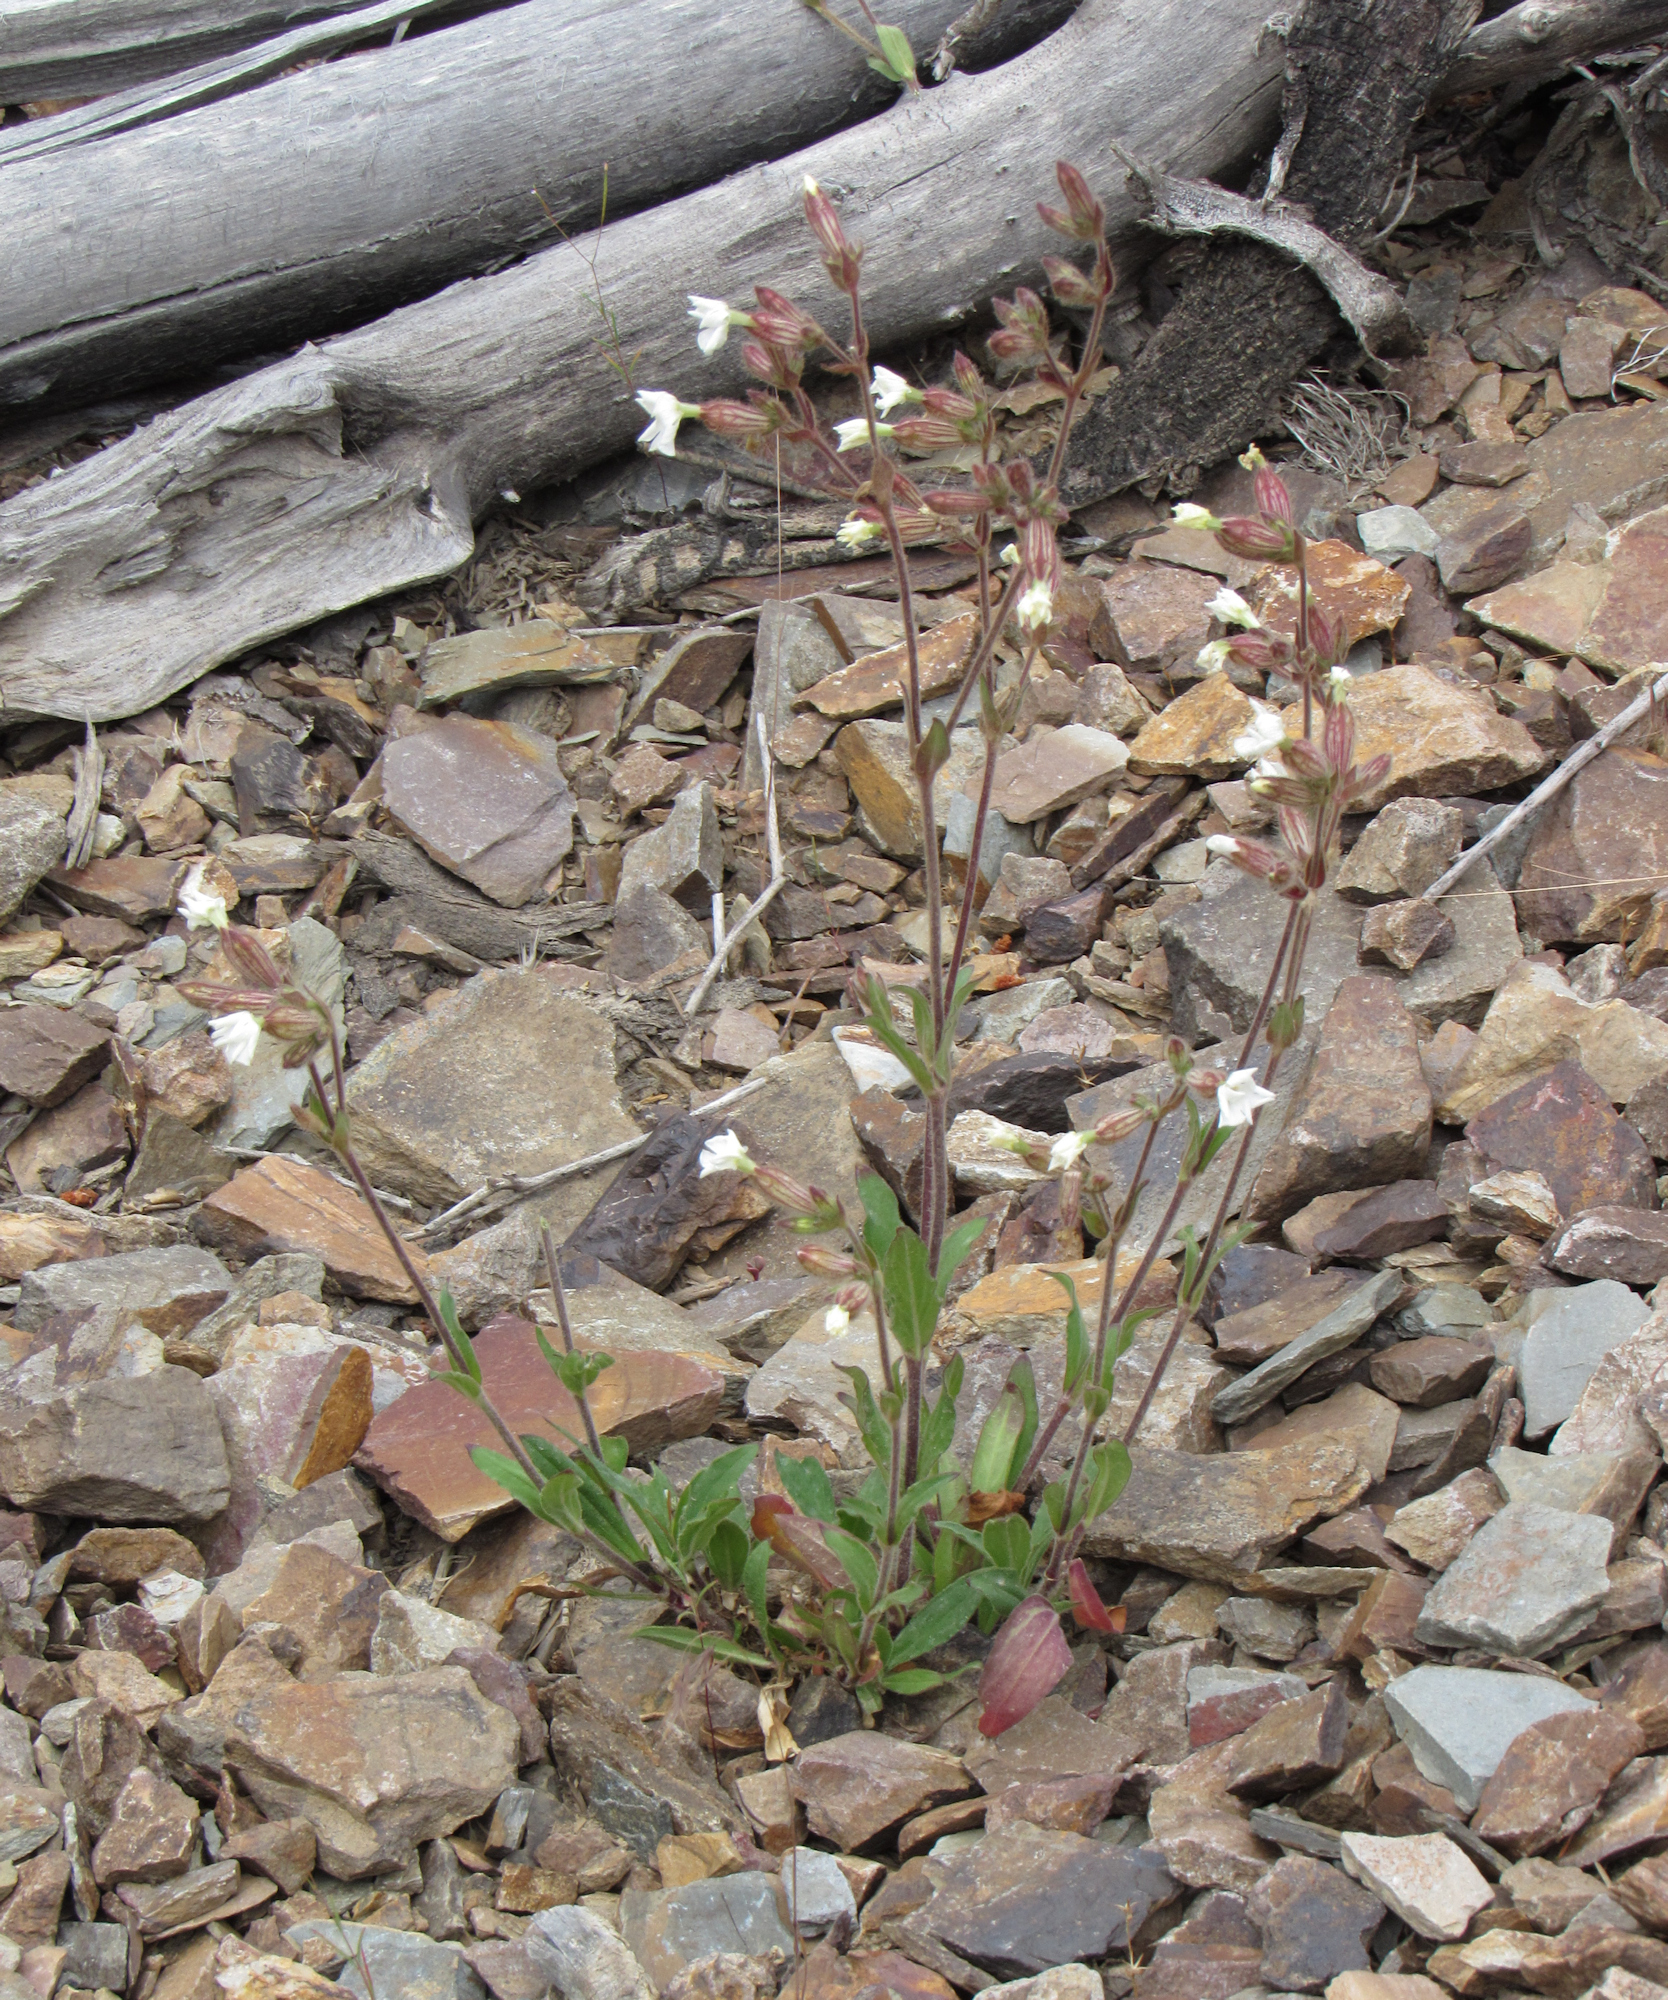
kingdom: Plantae
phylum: Tracheophyta
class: Magnoliopsida
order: Caryophyllales
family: Caryophyllaceae
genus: Silene
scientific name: Silene latifolia
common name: White campion
